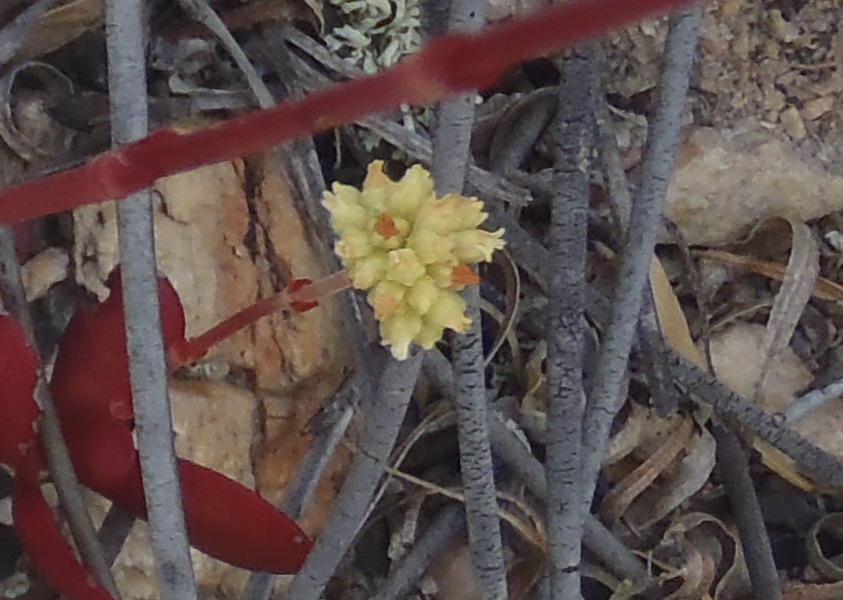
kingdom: Plantae
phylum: Tracheophyta
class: Magnoliopsida
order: Saxifragales
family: Crassulaceae
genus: Crassula
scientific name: Crassula atropurpurea
